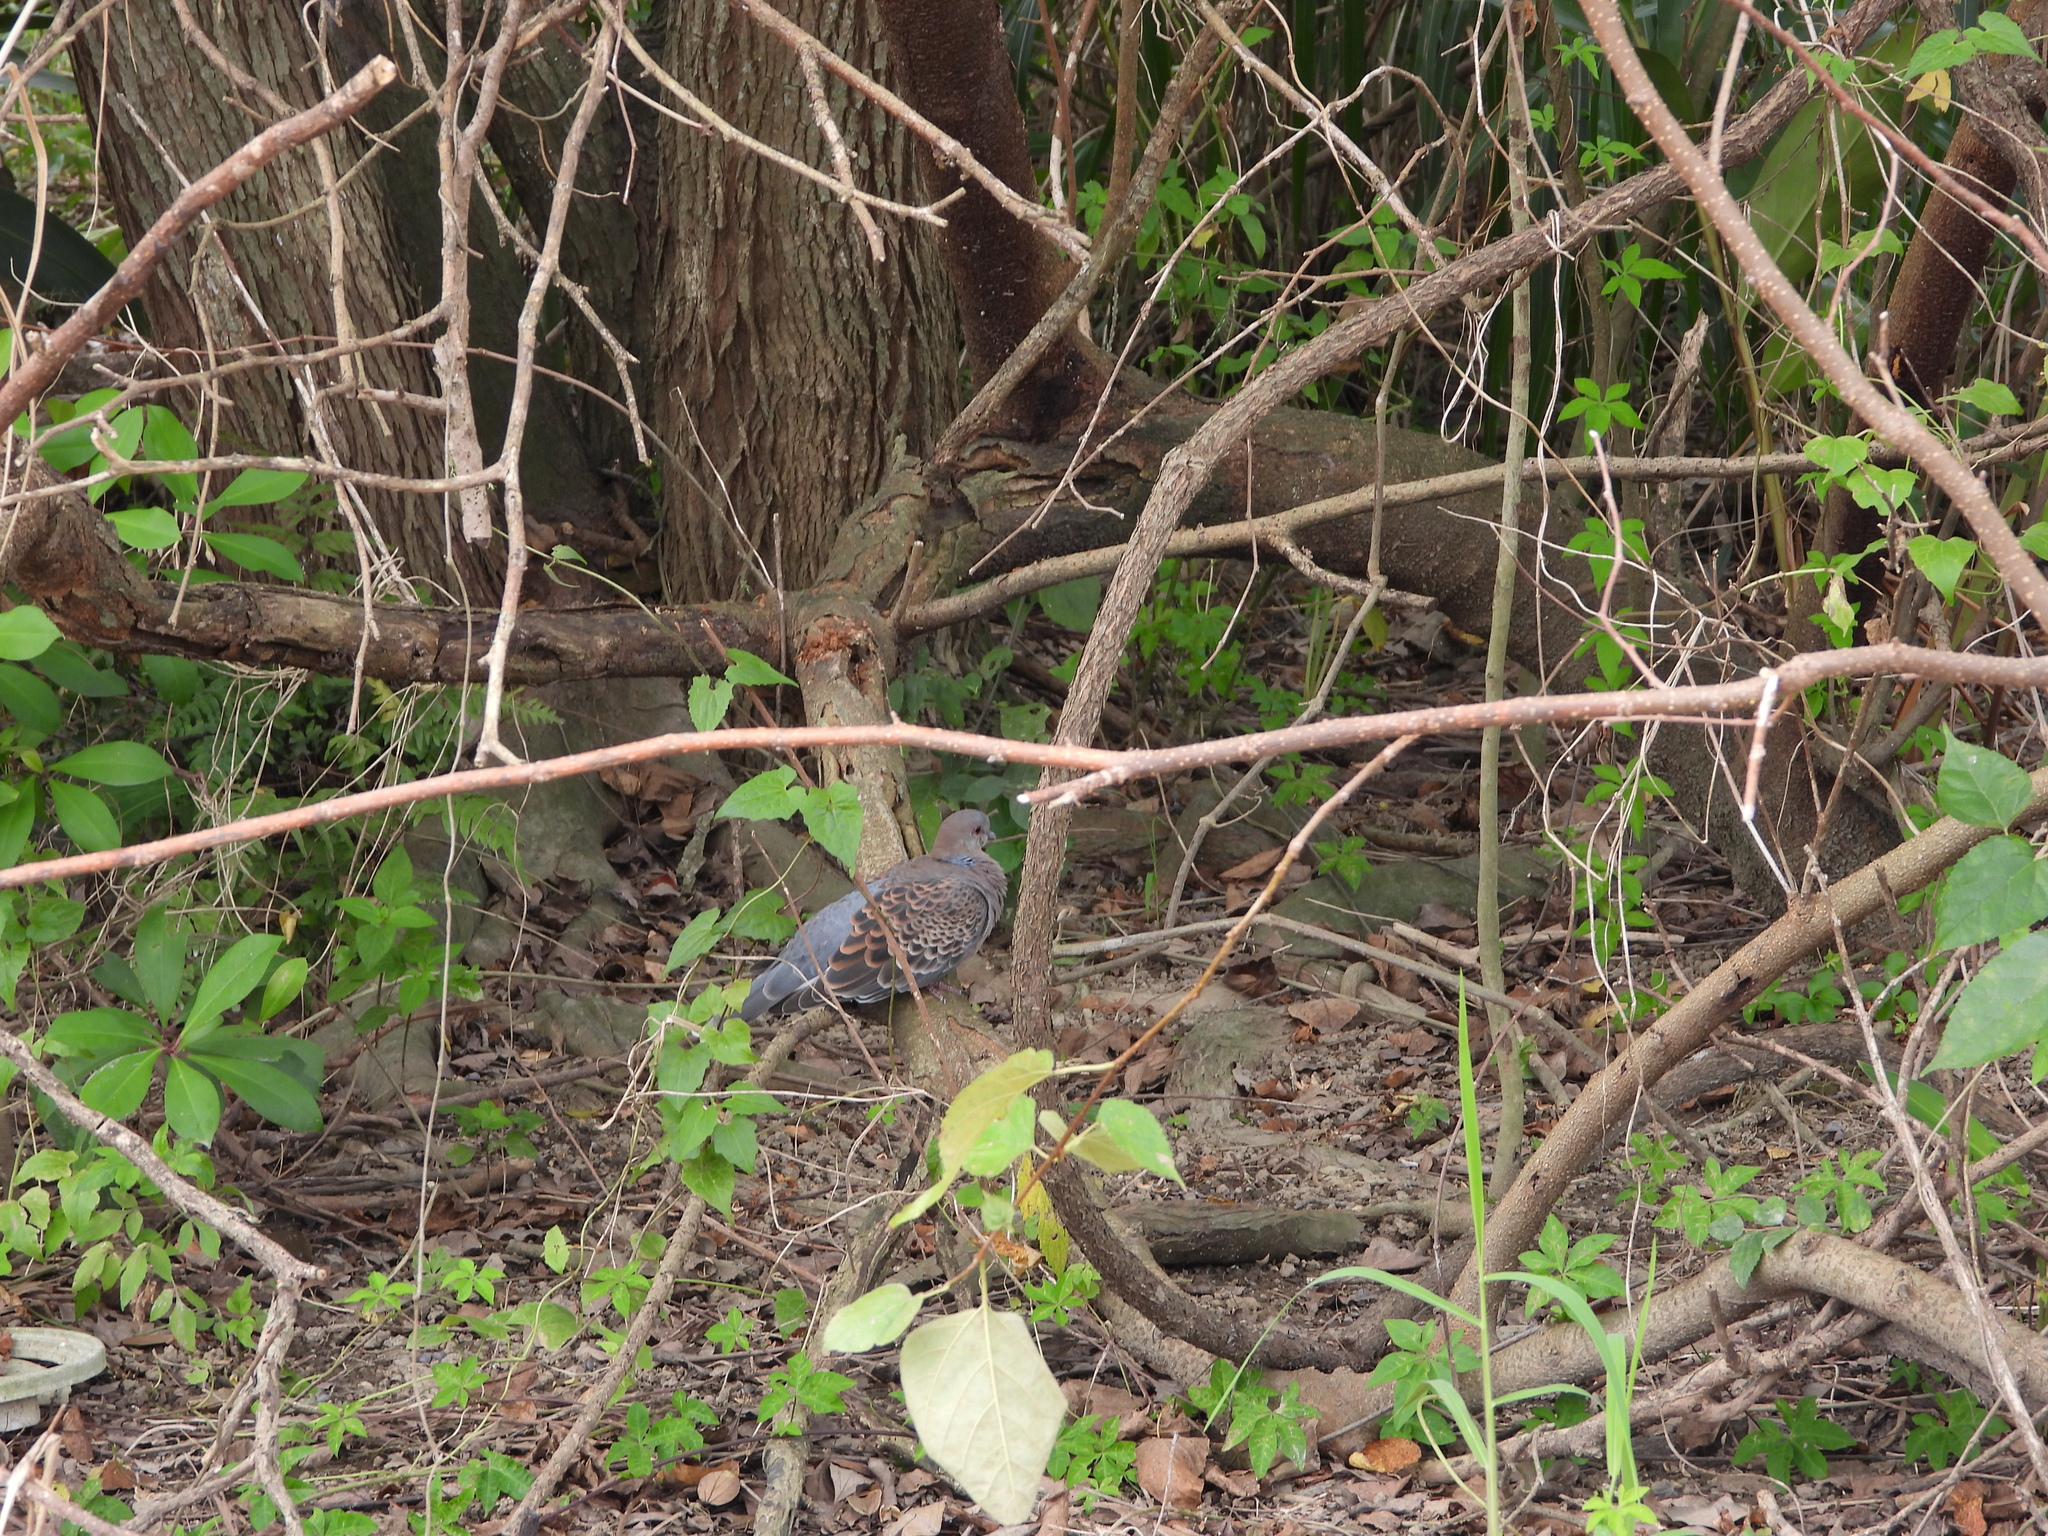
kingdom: Animalia
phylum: Chordata
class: Aves
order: Columbiformes
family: Columbidae
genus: Streptopelia
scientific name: Streptopelia orientalis
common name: Oriental turtle dove
